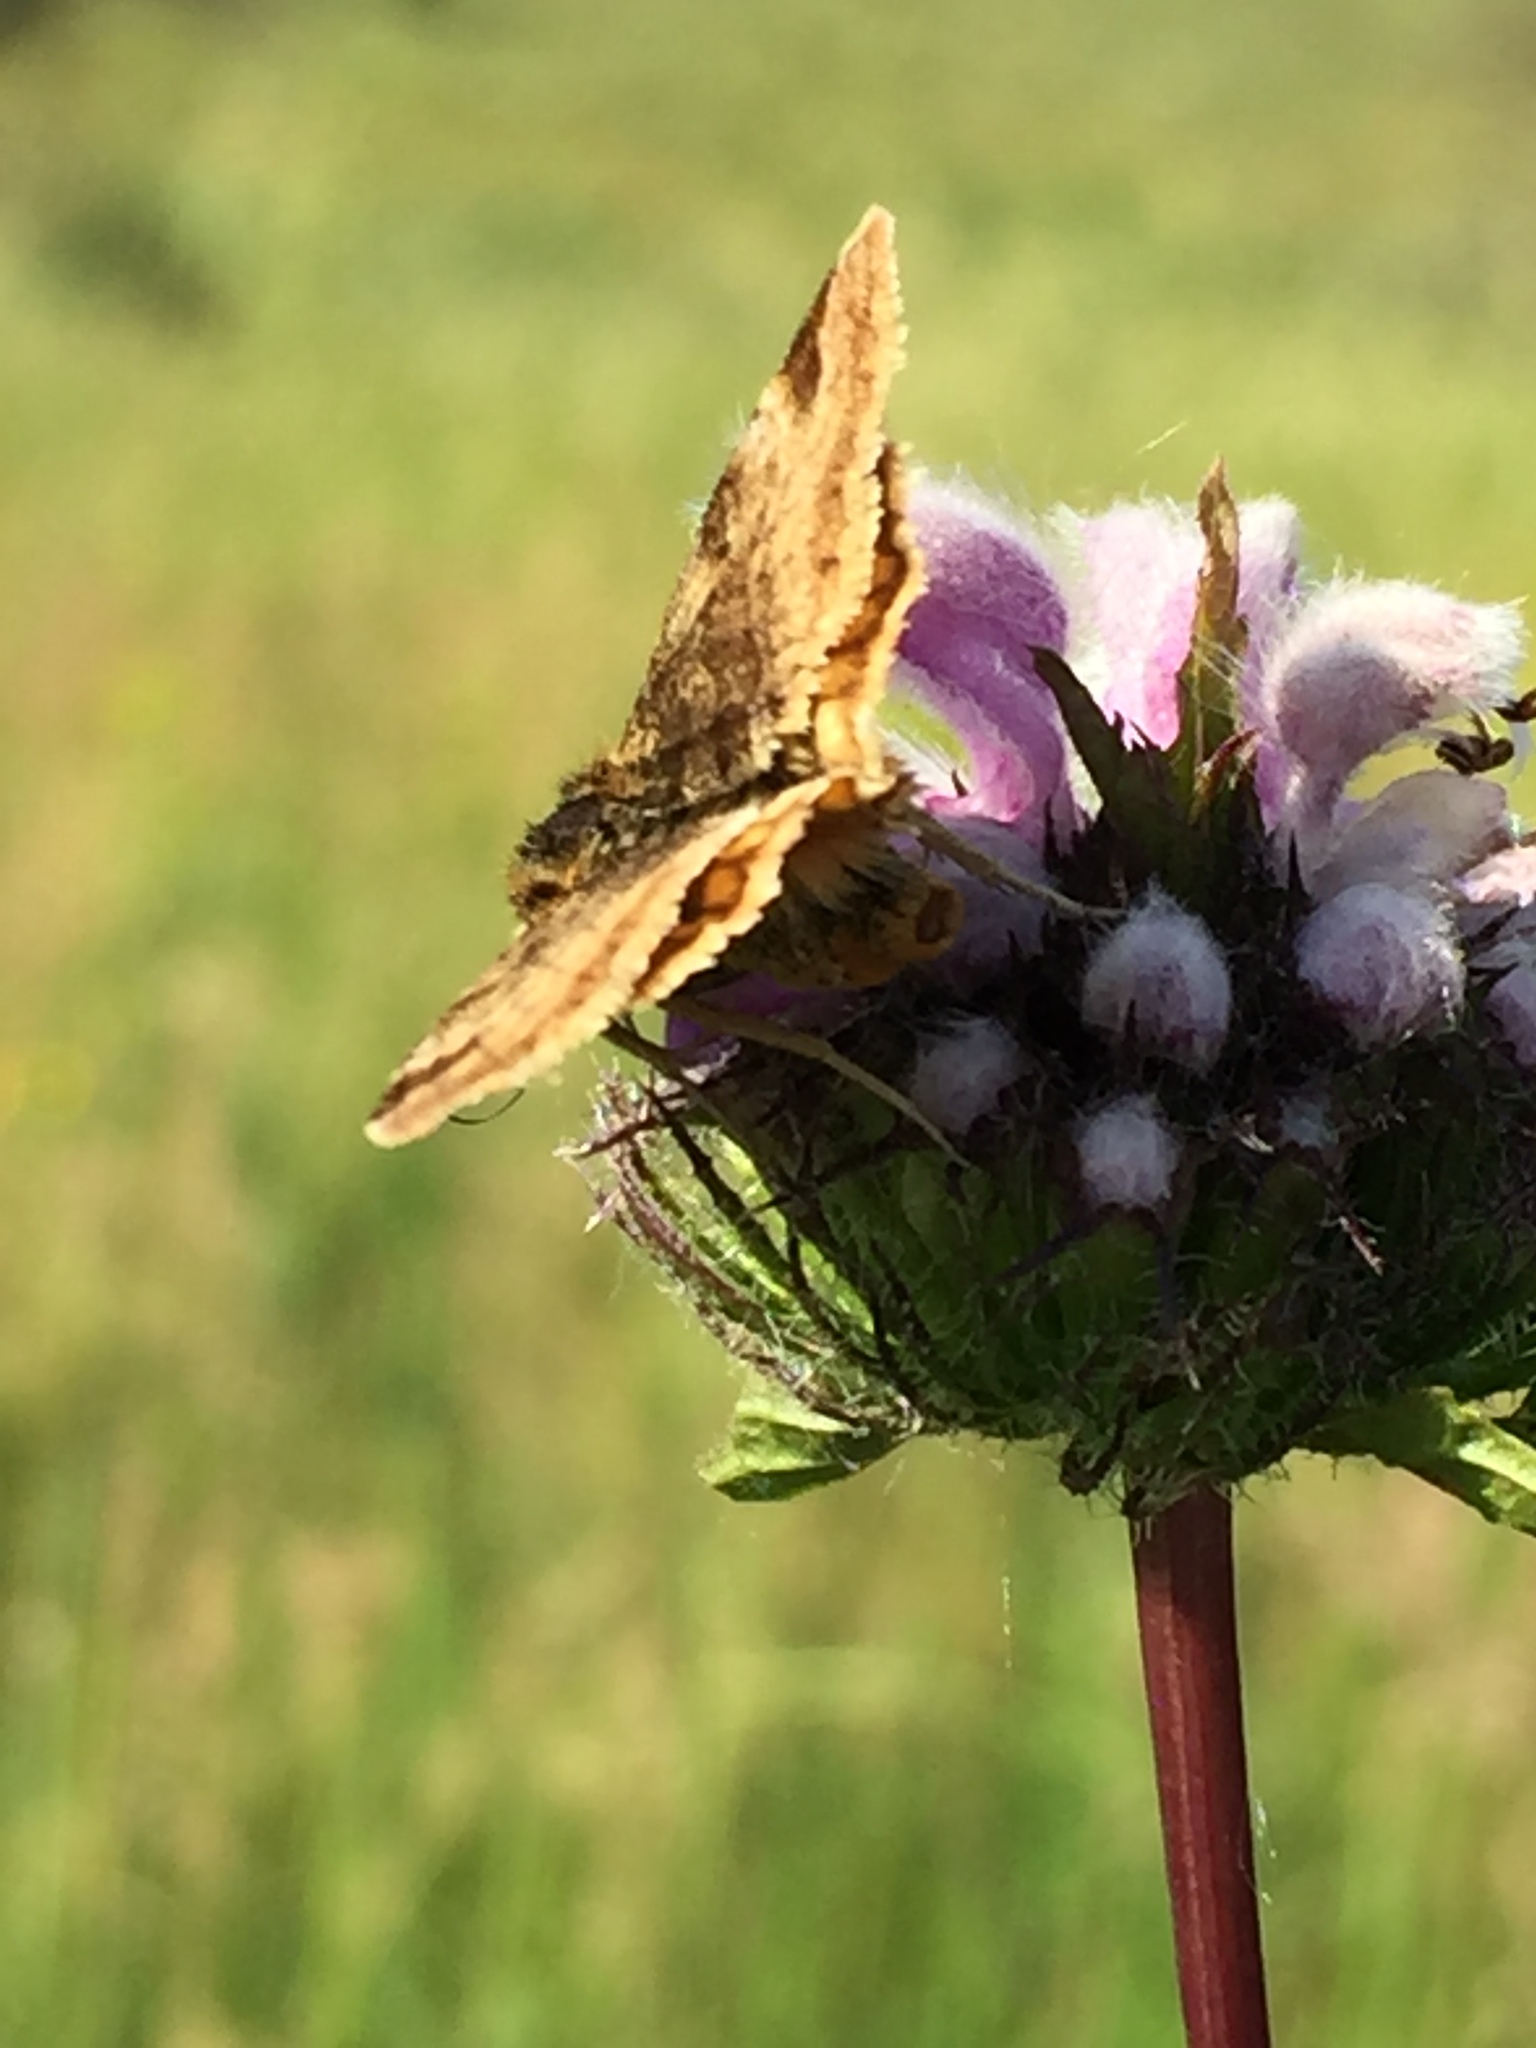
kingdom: Animalia
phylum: Arthropoda
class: Insecta
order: Lepidoptera
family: Erebidae
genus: Euclidia
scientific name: Euclidia glyphica
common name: Burnet companion
